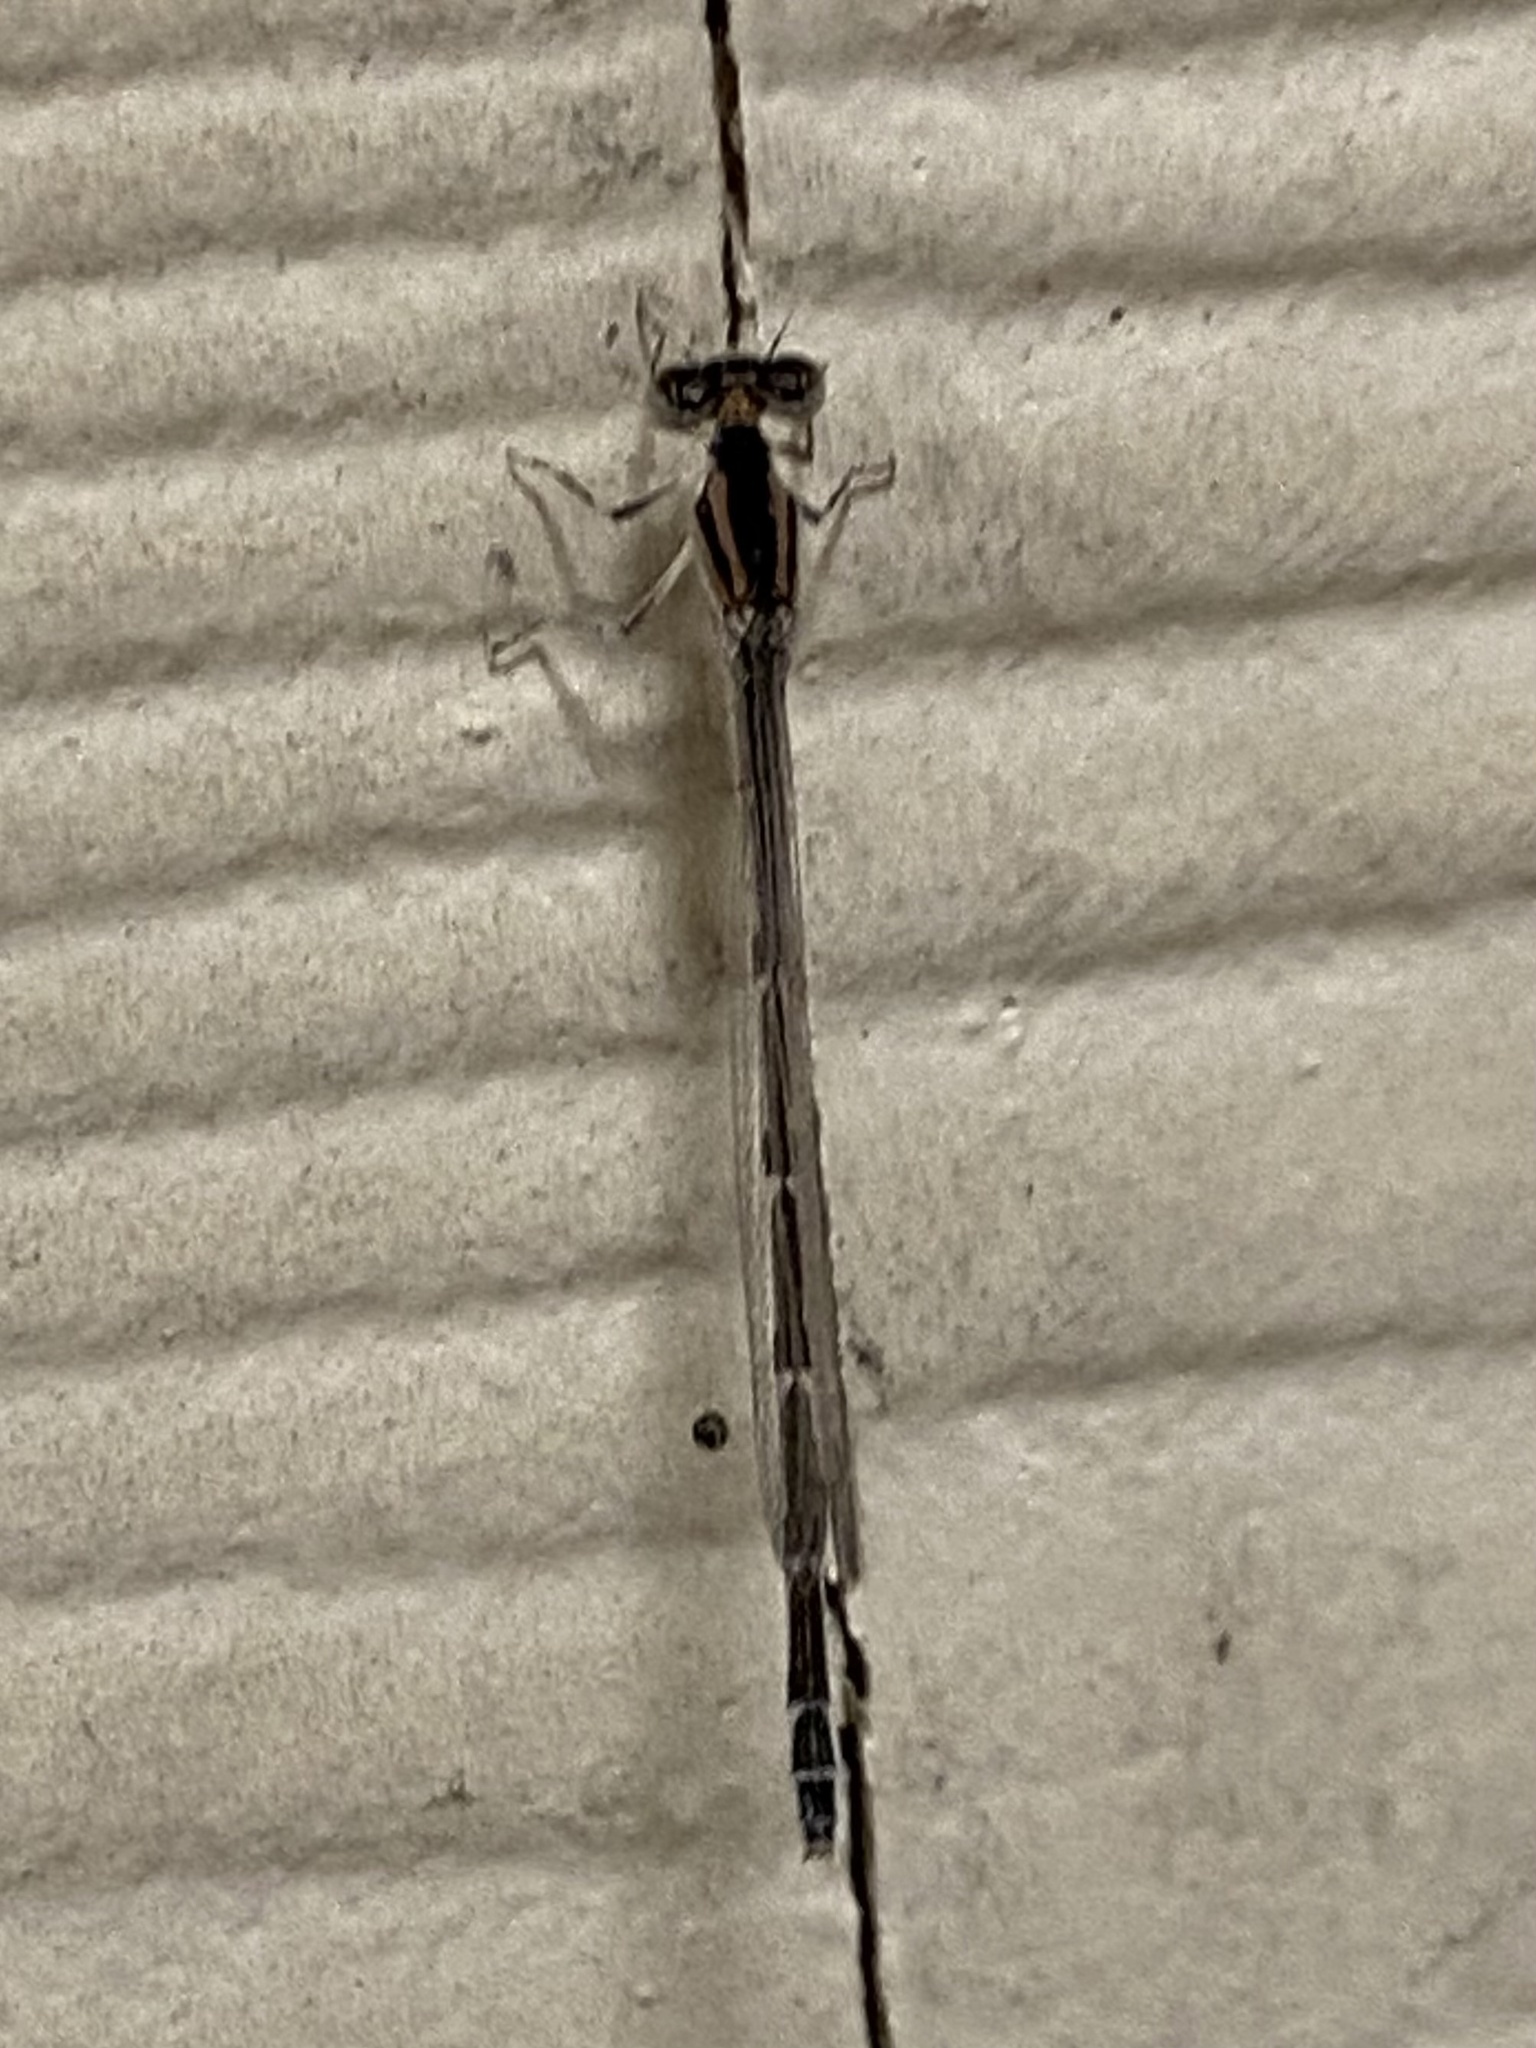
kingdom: Animalia
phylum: Arthropoda
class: Insecta
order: Odonata
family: Coenagrionidae
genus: Enallagma
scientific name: Enallagma civile
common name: Damselfly
